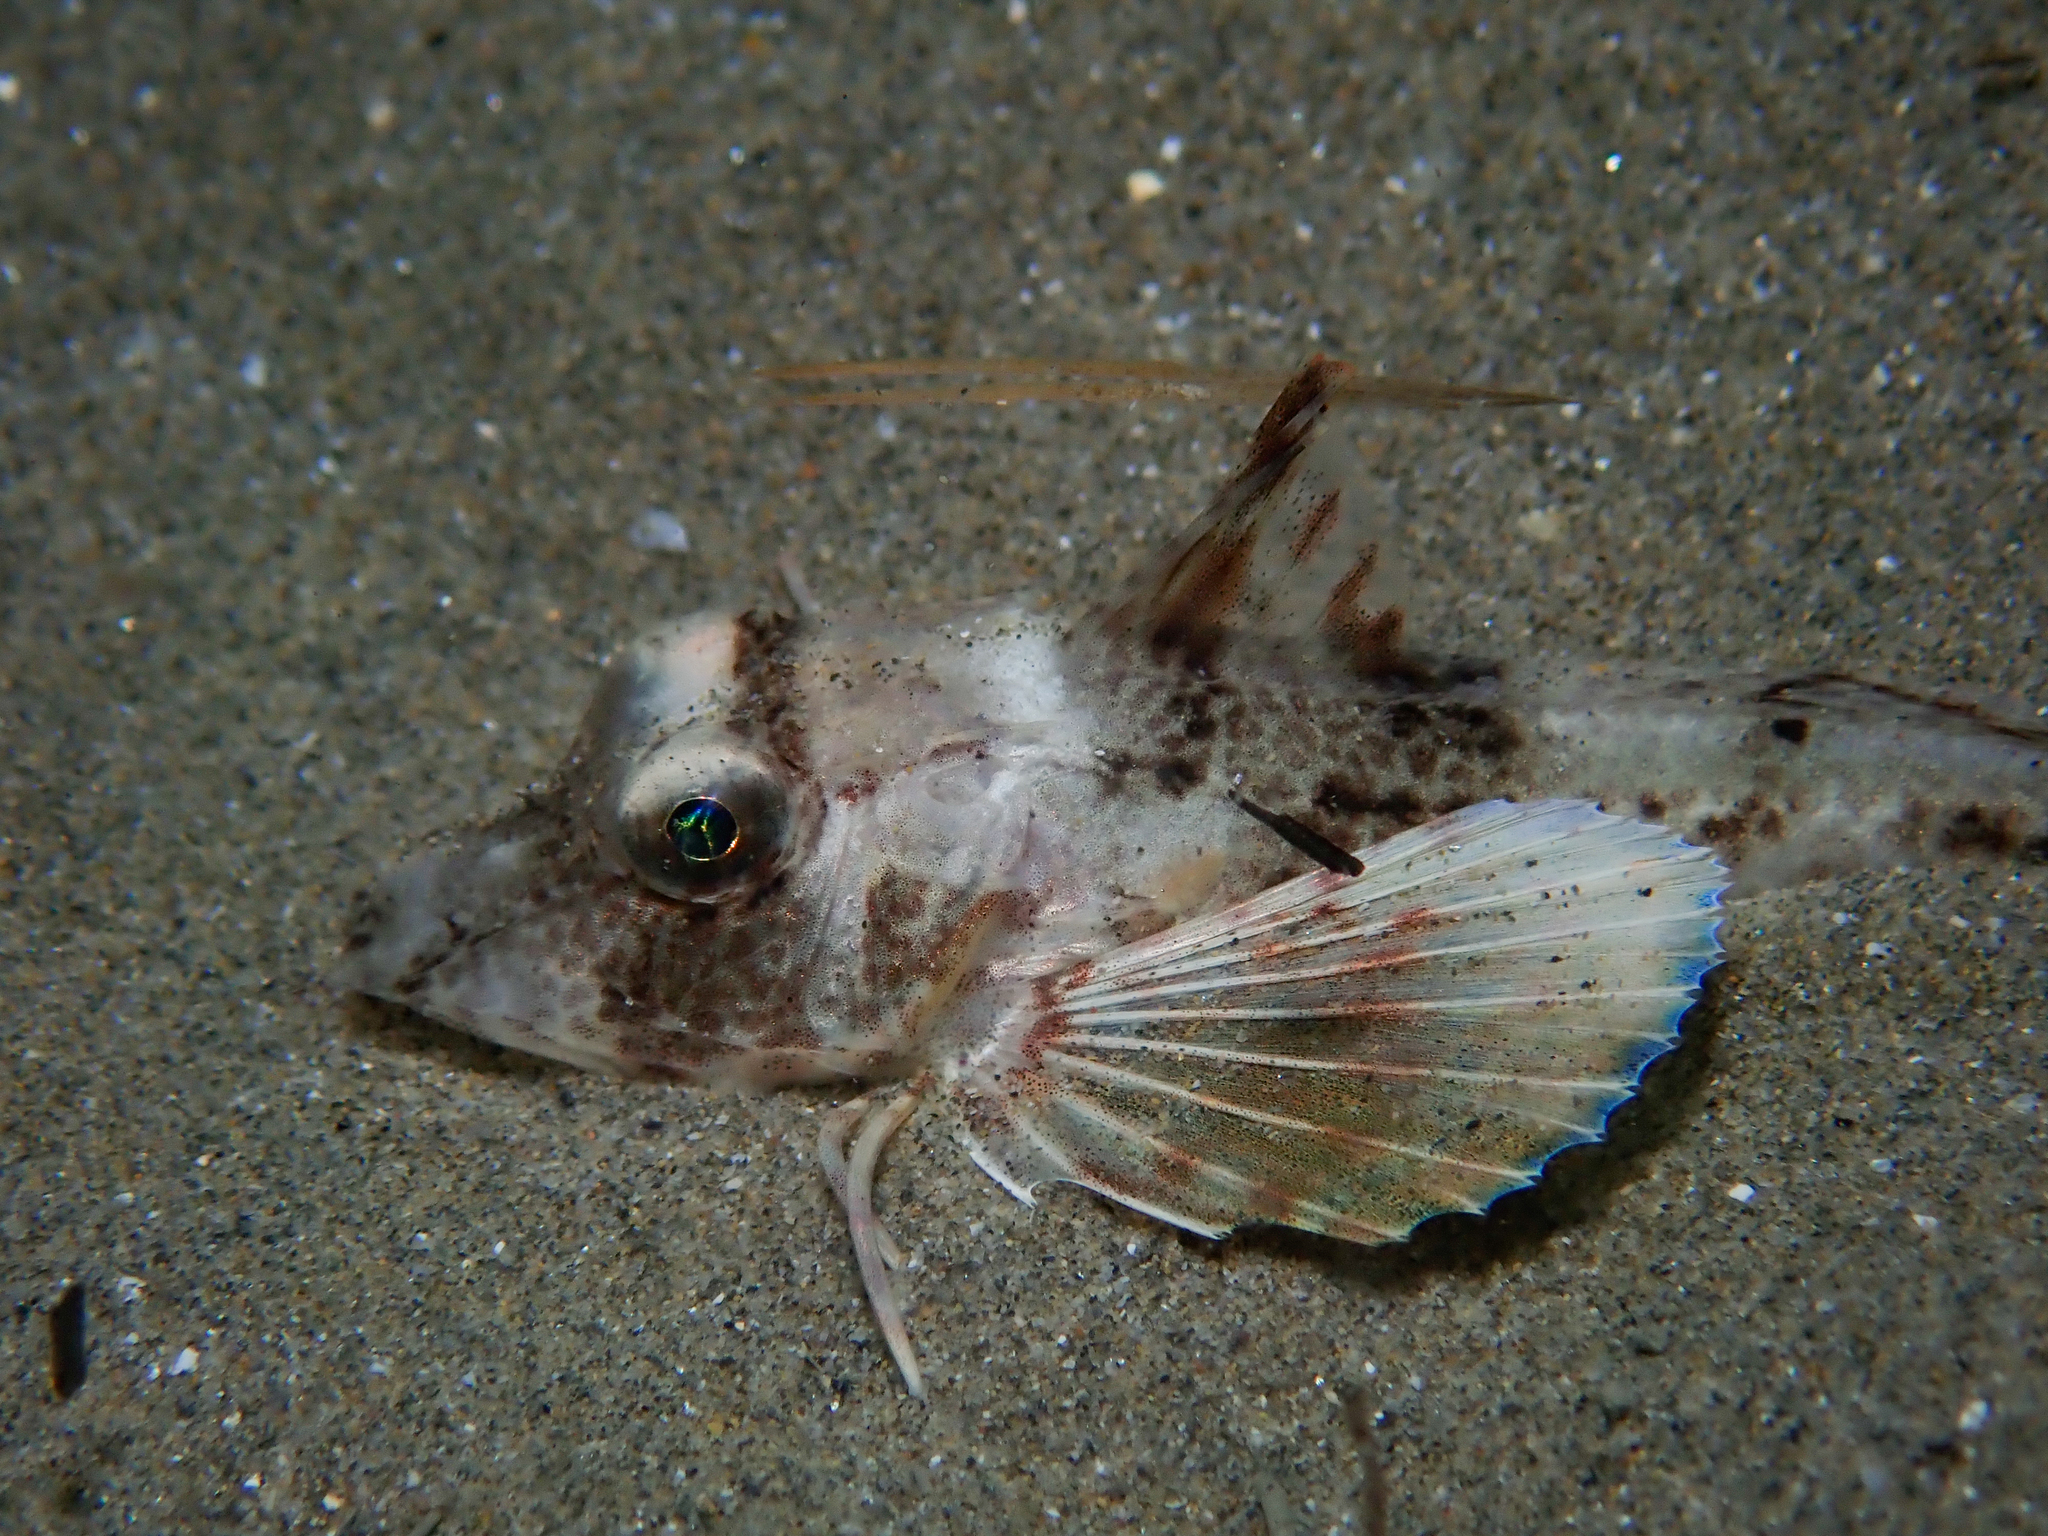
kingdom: Animalia
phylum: Chordata
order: Scorpaeniformes
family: Triglidae
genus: Chelidonichthys
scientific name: Chelidonichthys lucerna
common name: Tub gurnard
